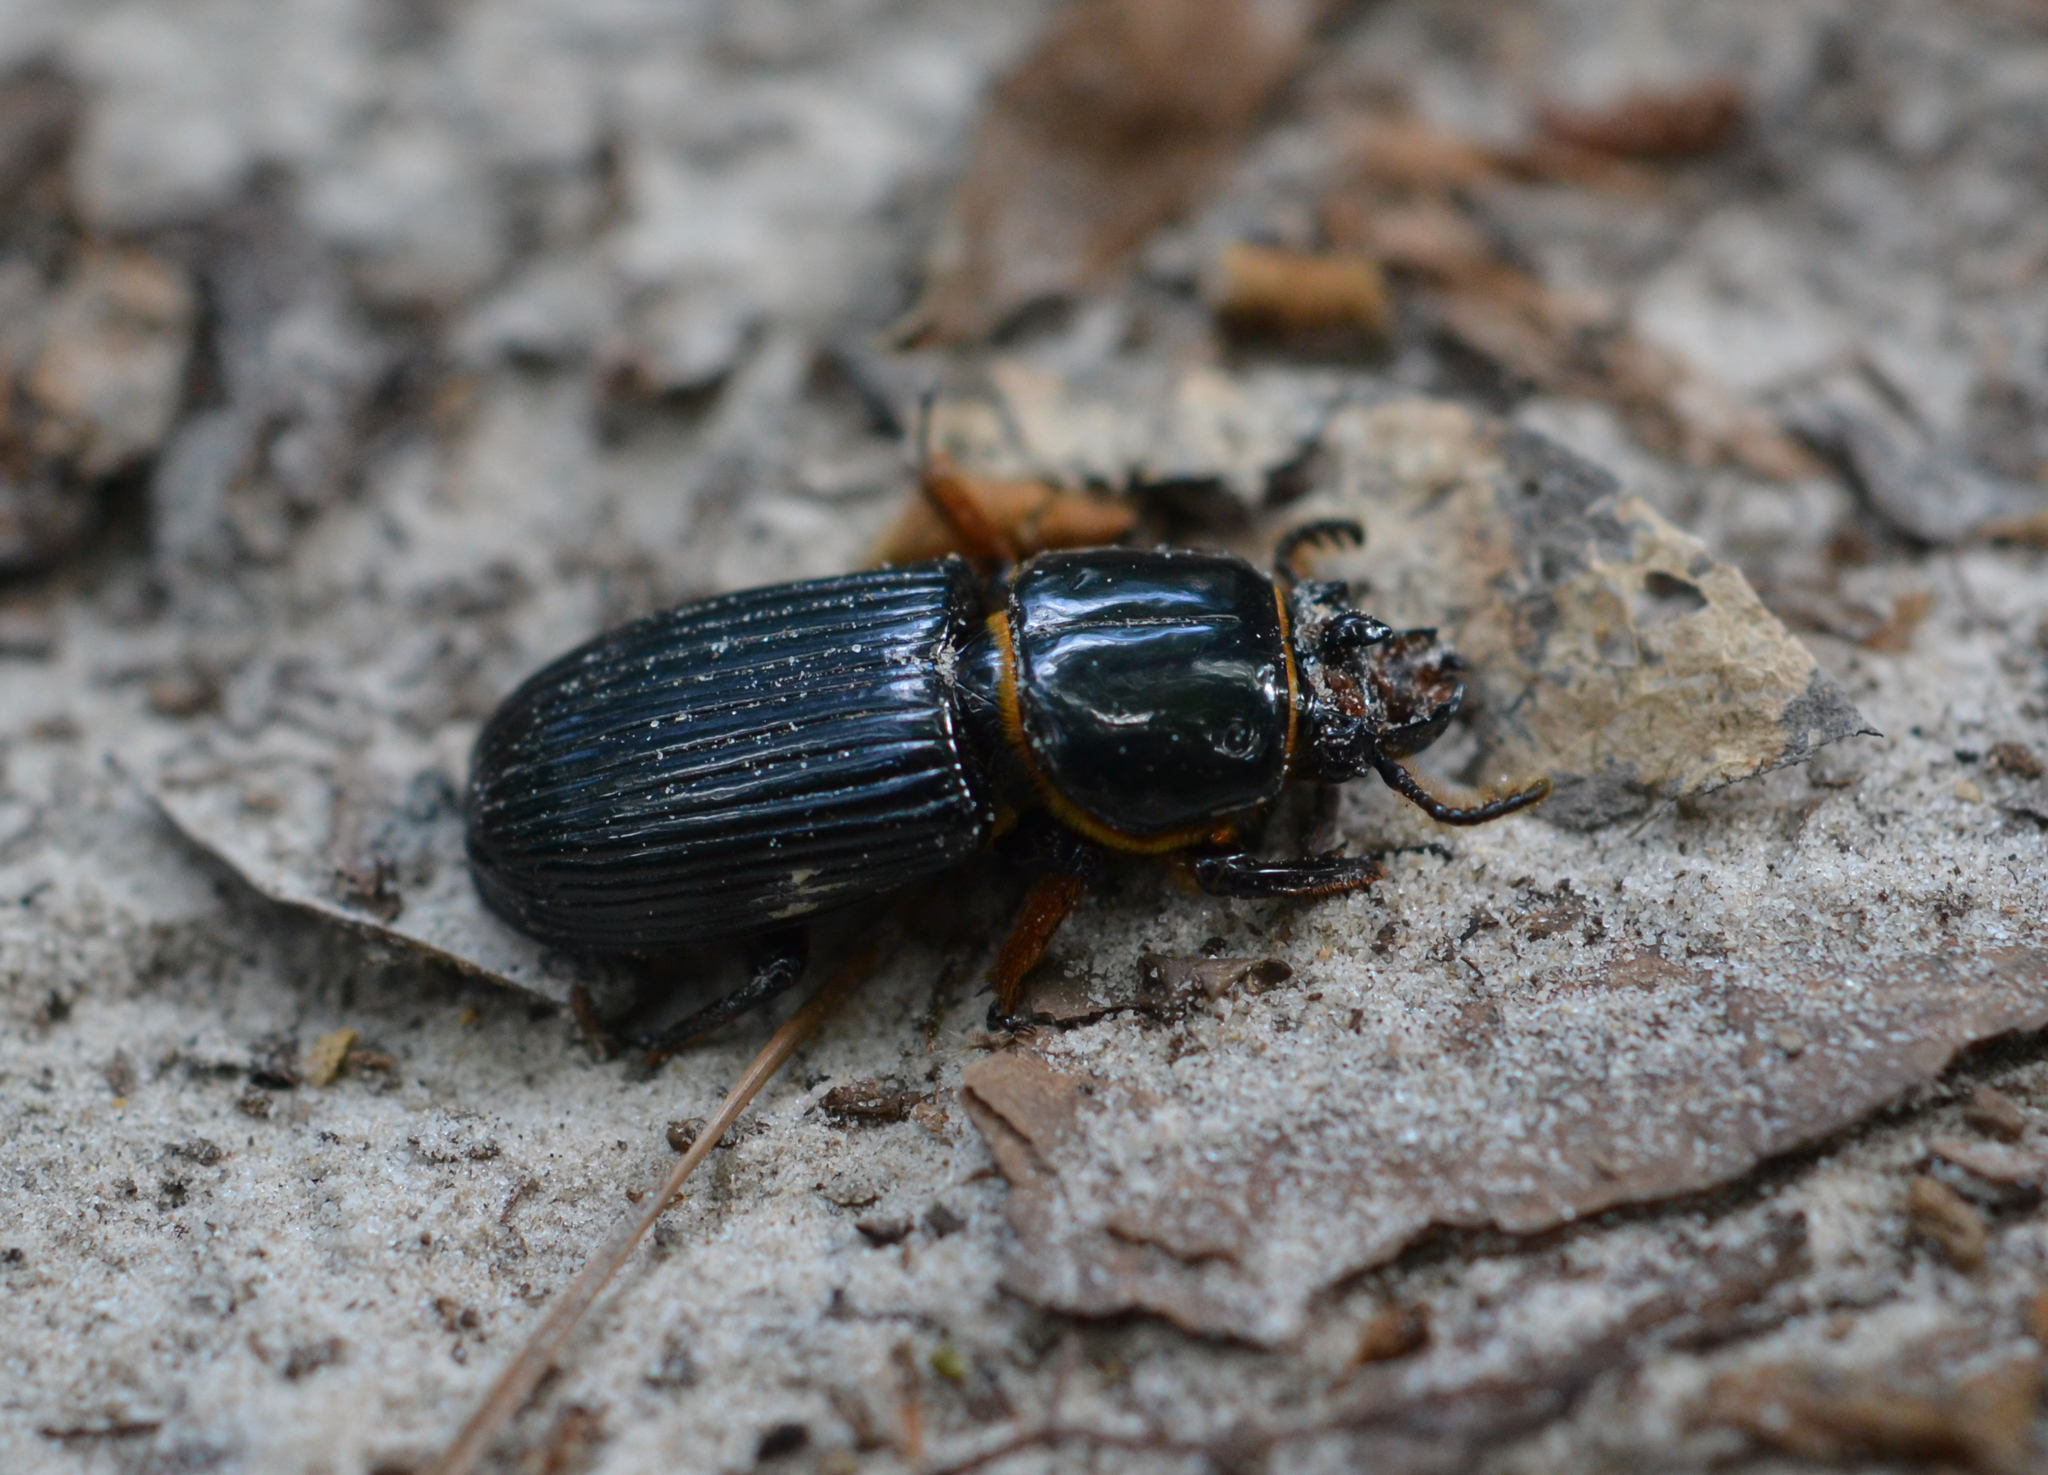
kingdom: Animalia
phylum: Arthropoda
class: Insecta
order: Coleoptera
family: Passalidae
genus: Odontotaenius
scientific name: Odontotaenius disjunctus
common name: Patent leather beetle
